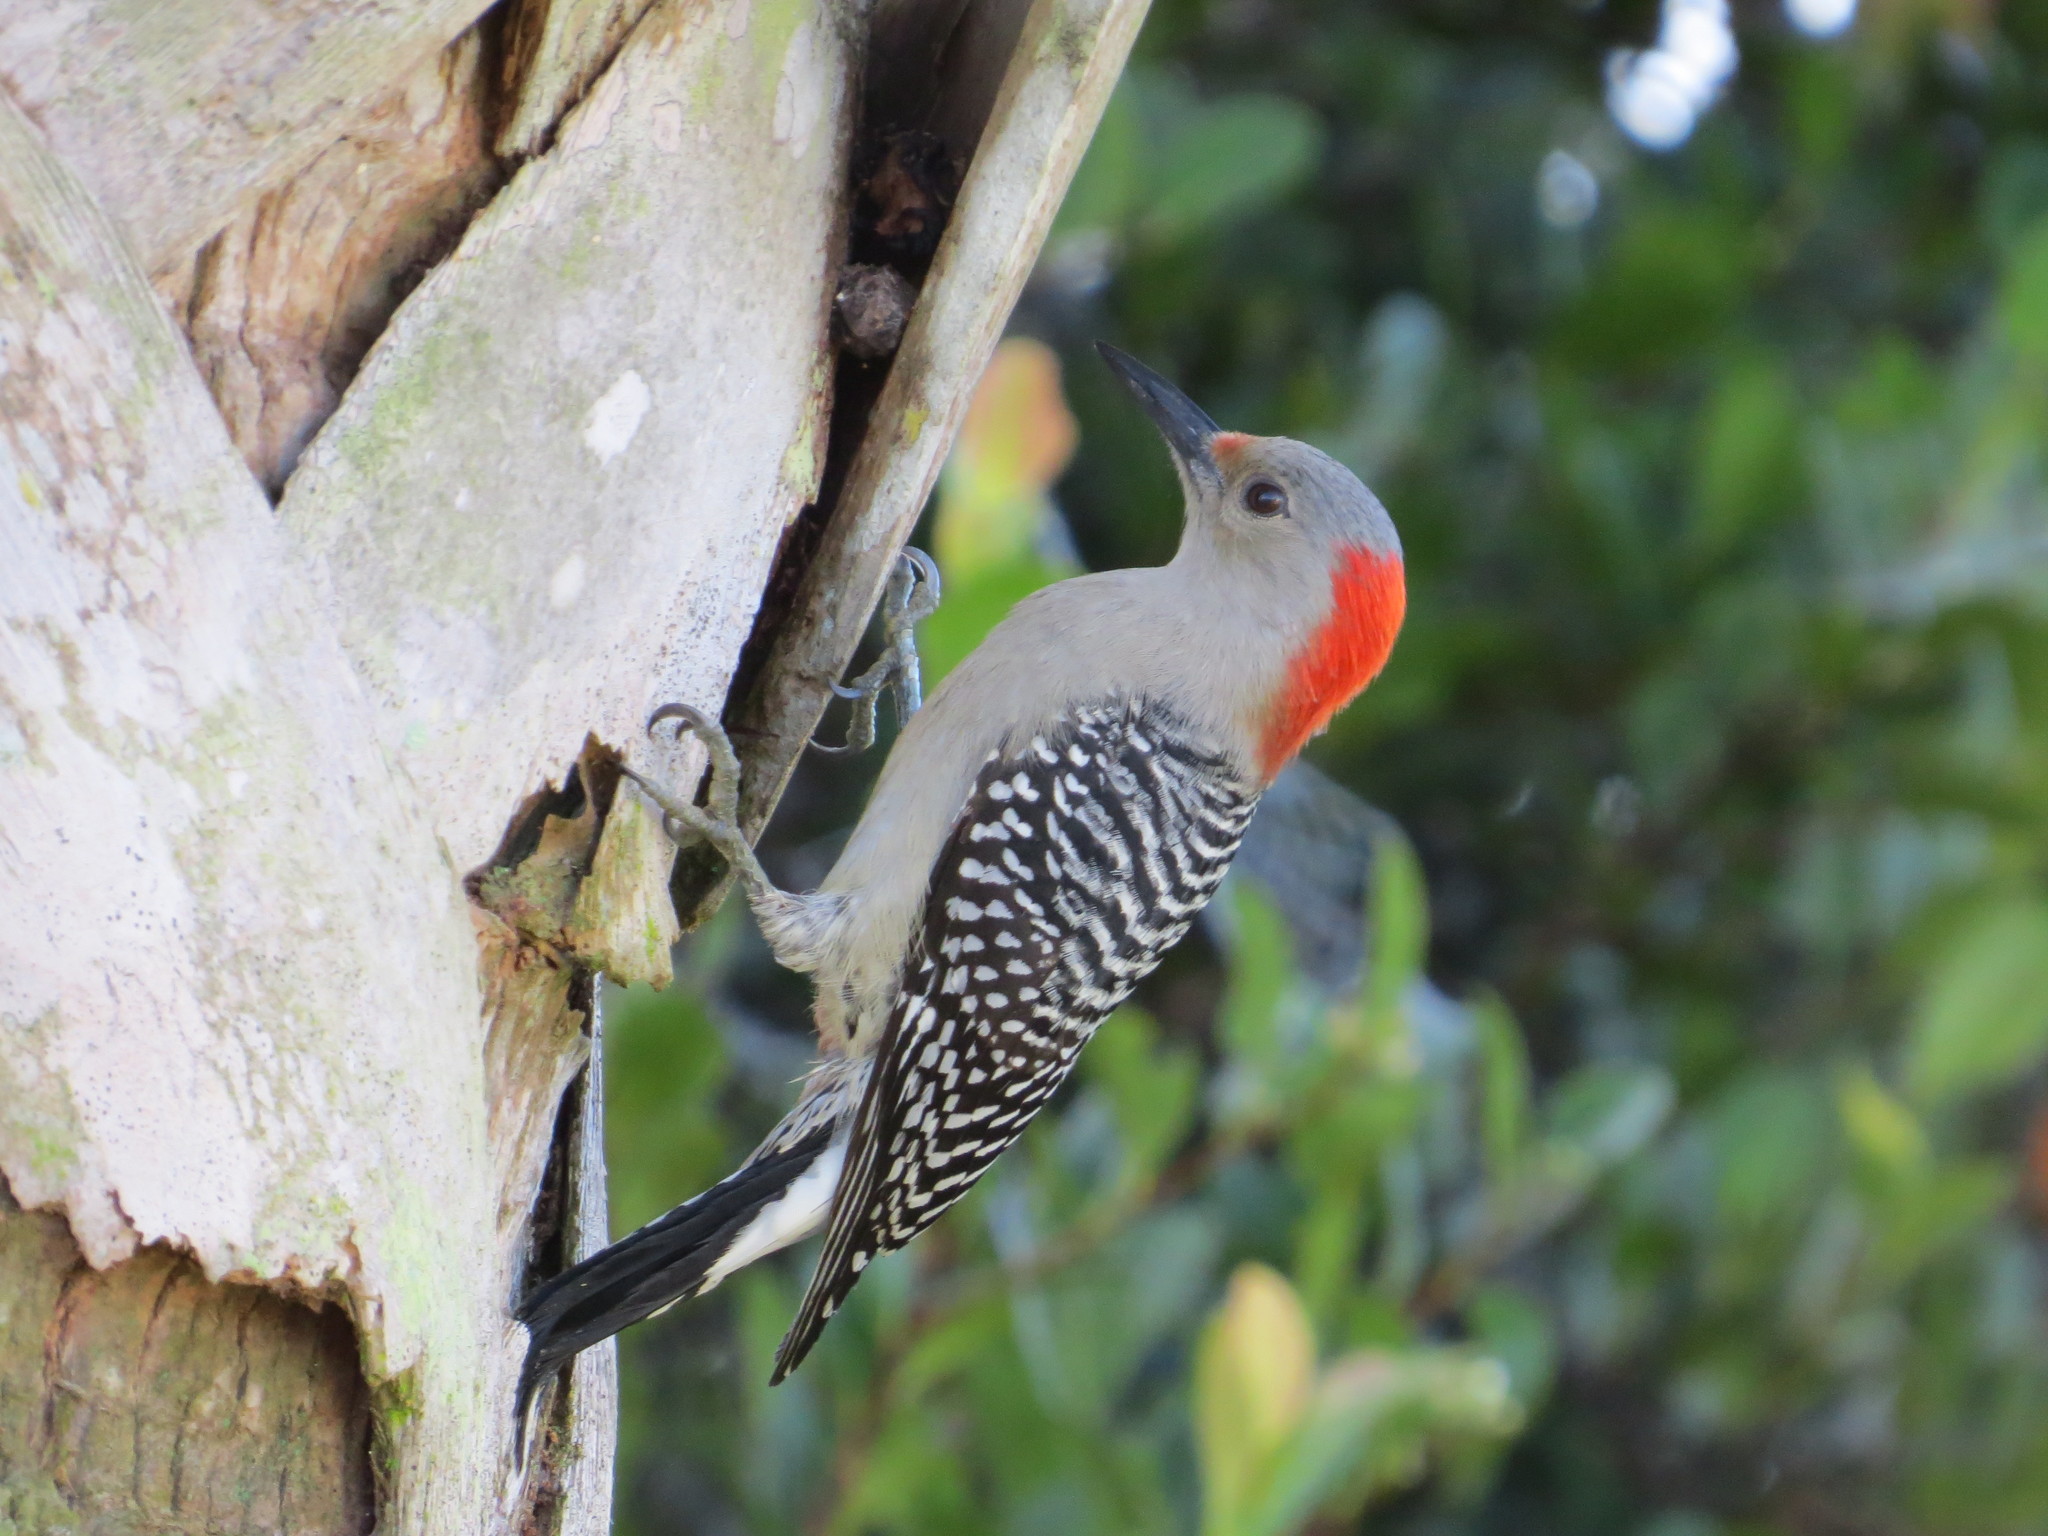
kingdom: Animalia
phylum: Chordata
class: Aves
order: Piciformes
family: Picidae
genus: Melanerpes
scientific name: Melanerpes carolinus
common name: Red-bellied woodpecker
